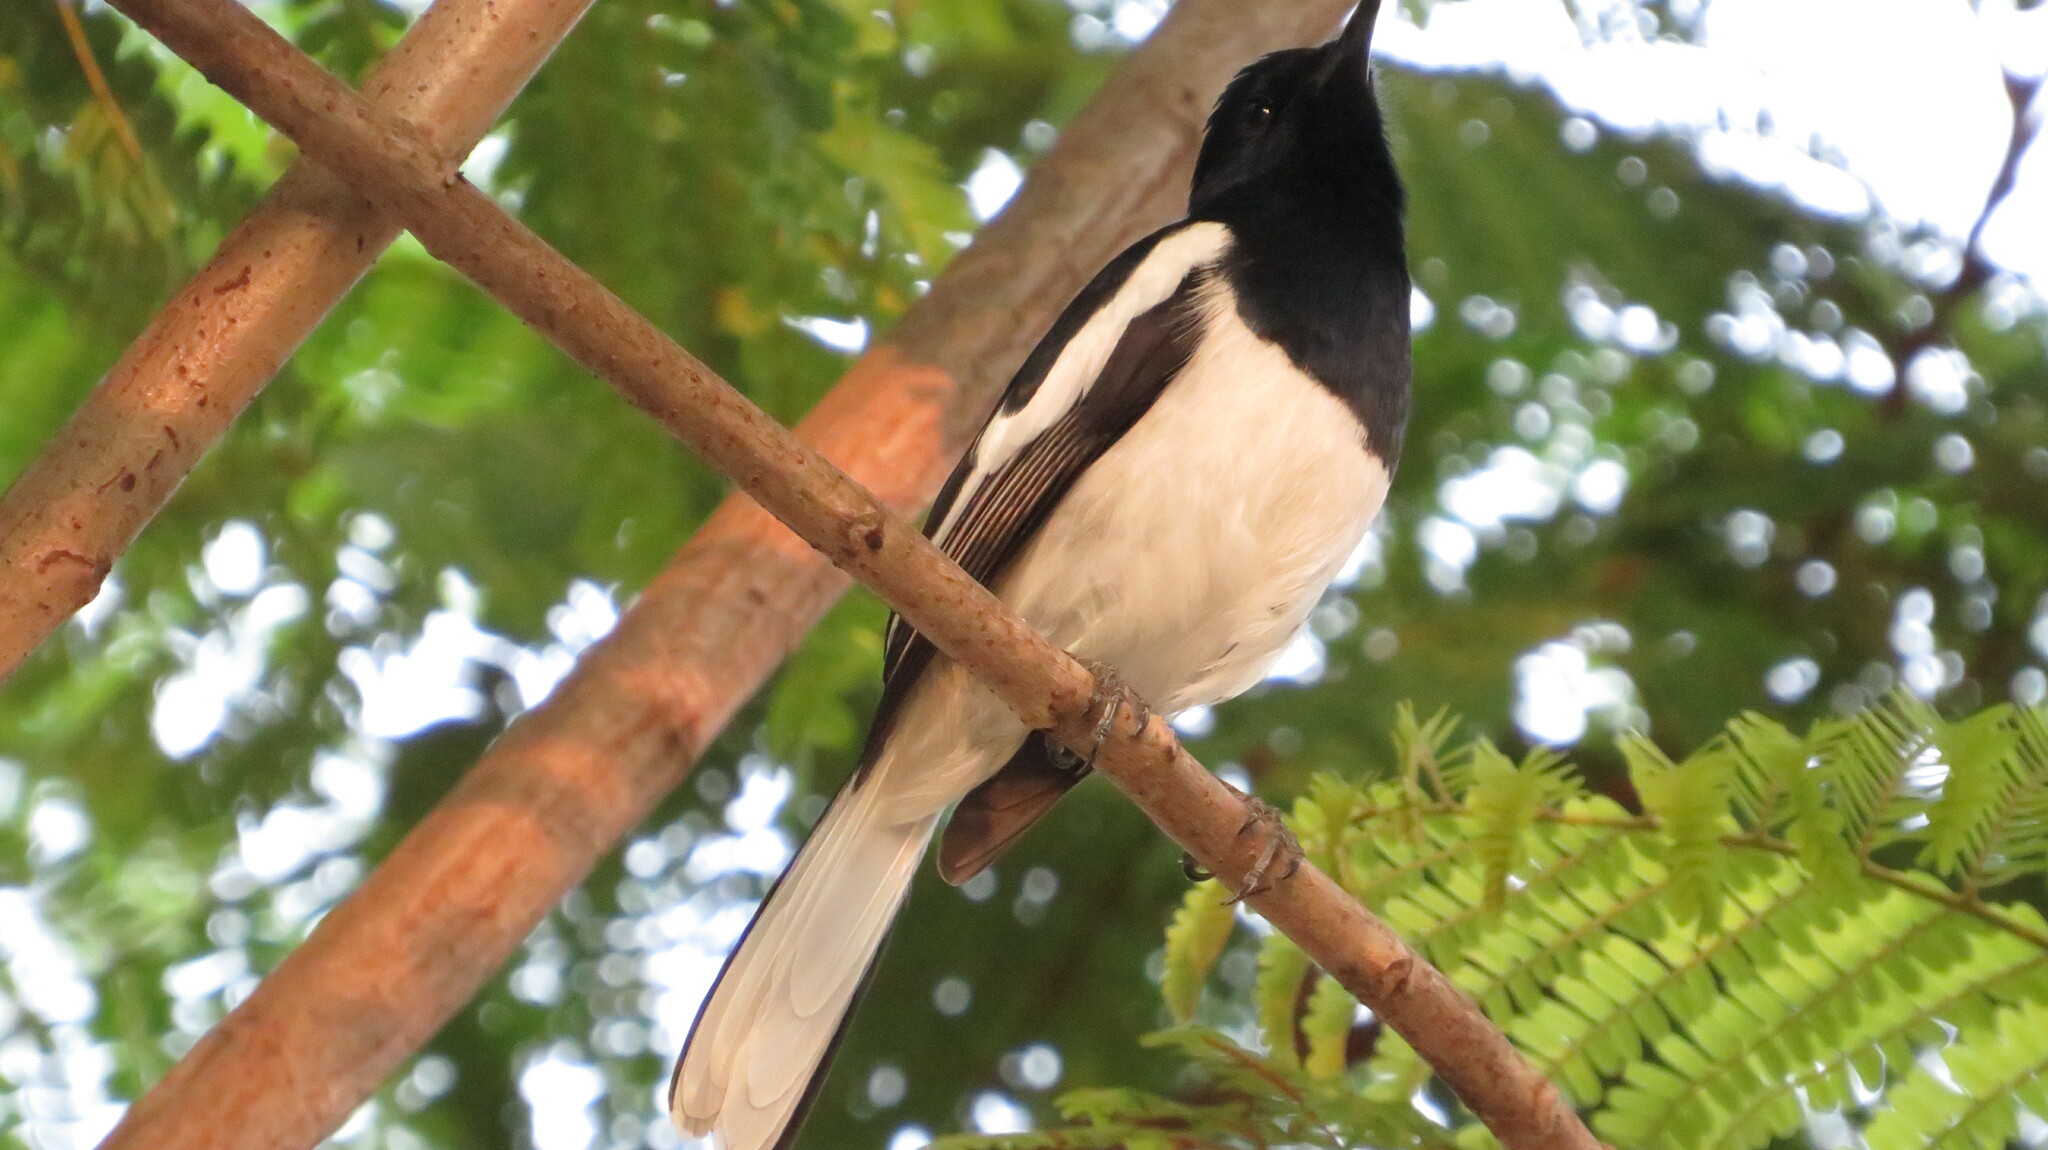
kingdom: Animalia
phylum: Chordata
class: Aves
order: Passeriformes
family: Muscicapidae
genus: Copsychus
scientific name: Copsychus saularis
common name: Oriental magpie-robin
